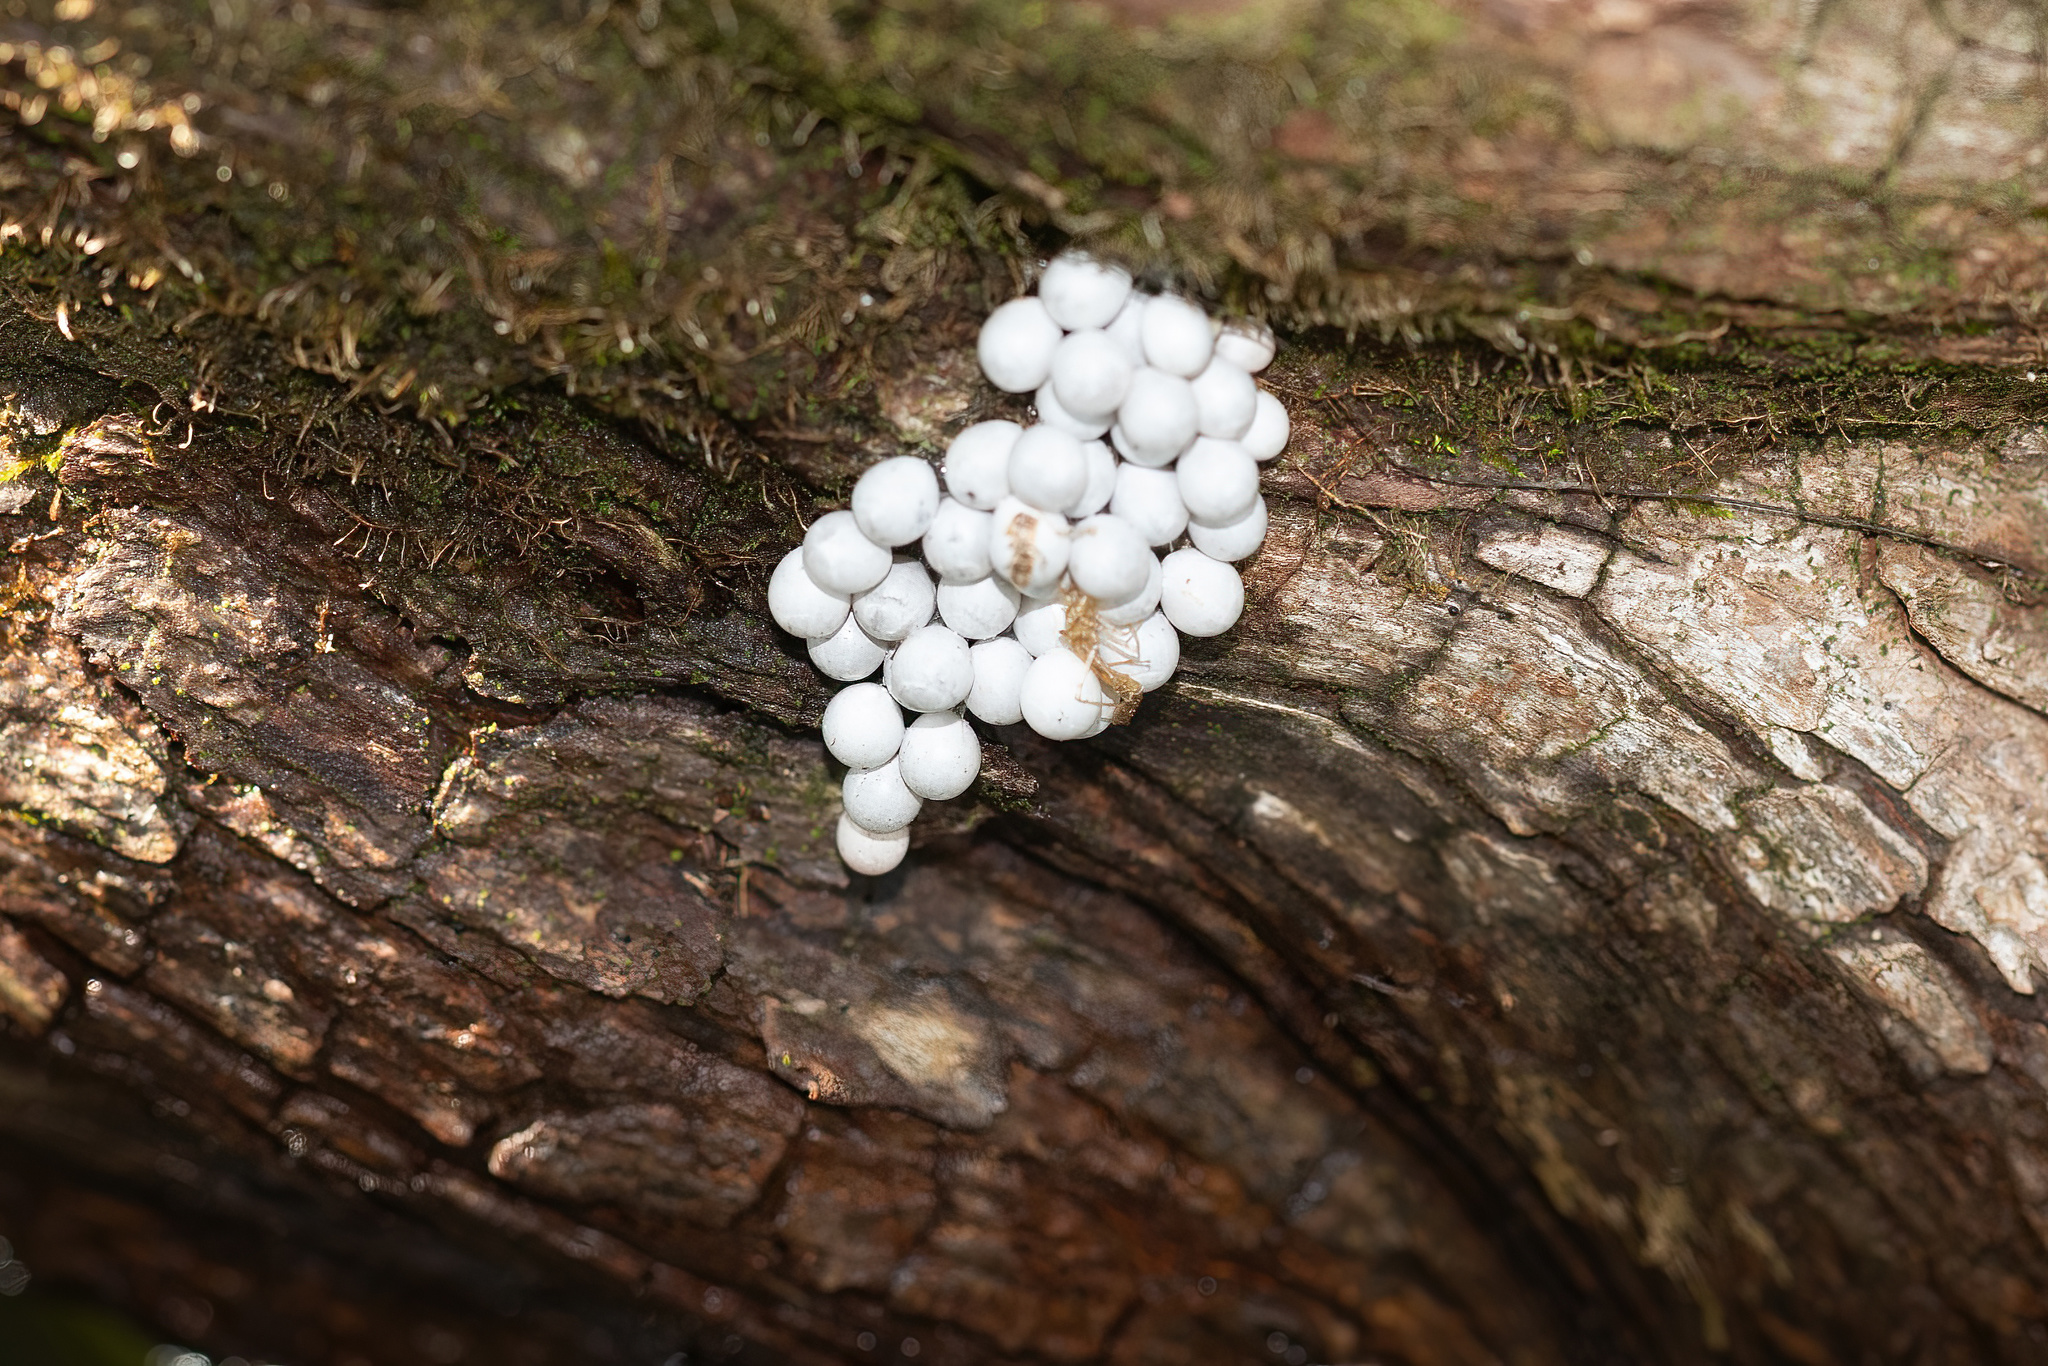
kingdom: Animalia
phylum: Mollusca
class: Gastropoda
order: Architaenioglossa
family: Ampullariidae
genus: Pomacea
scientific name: Pomacea paludosa
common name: Florida applesnail
